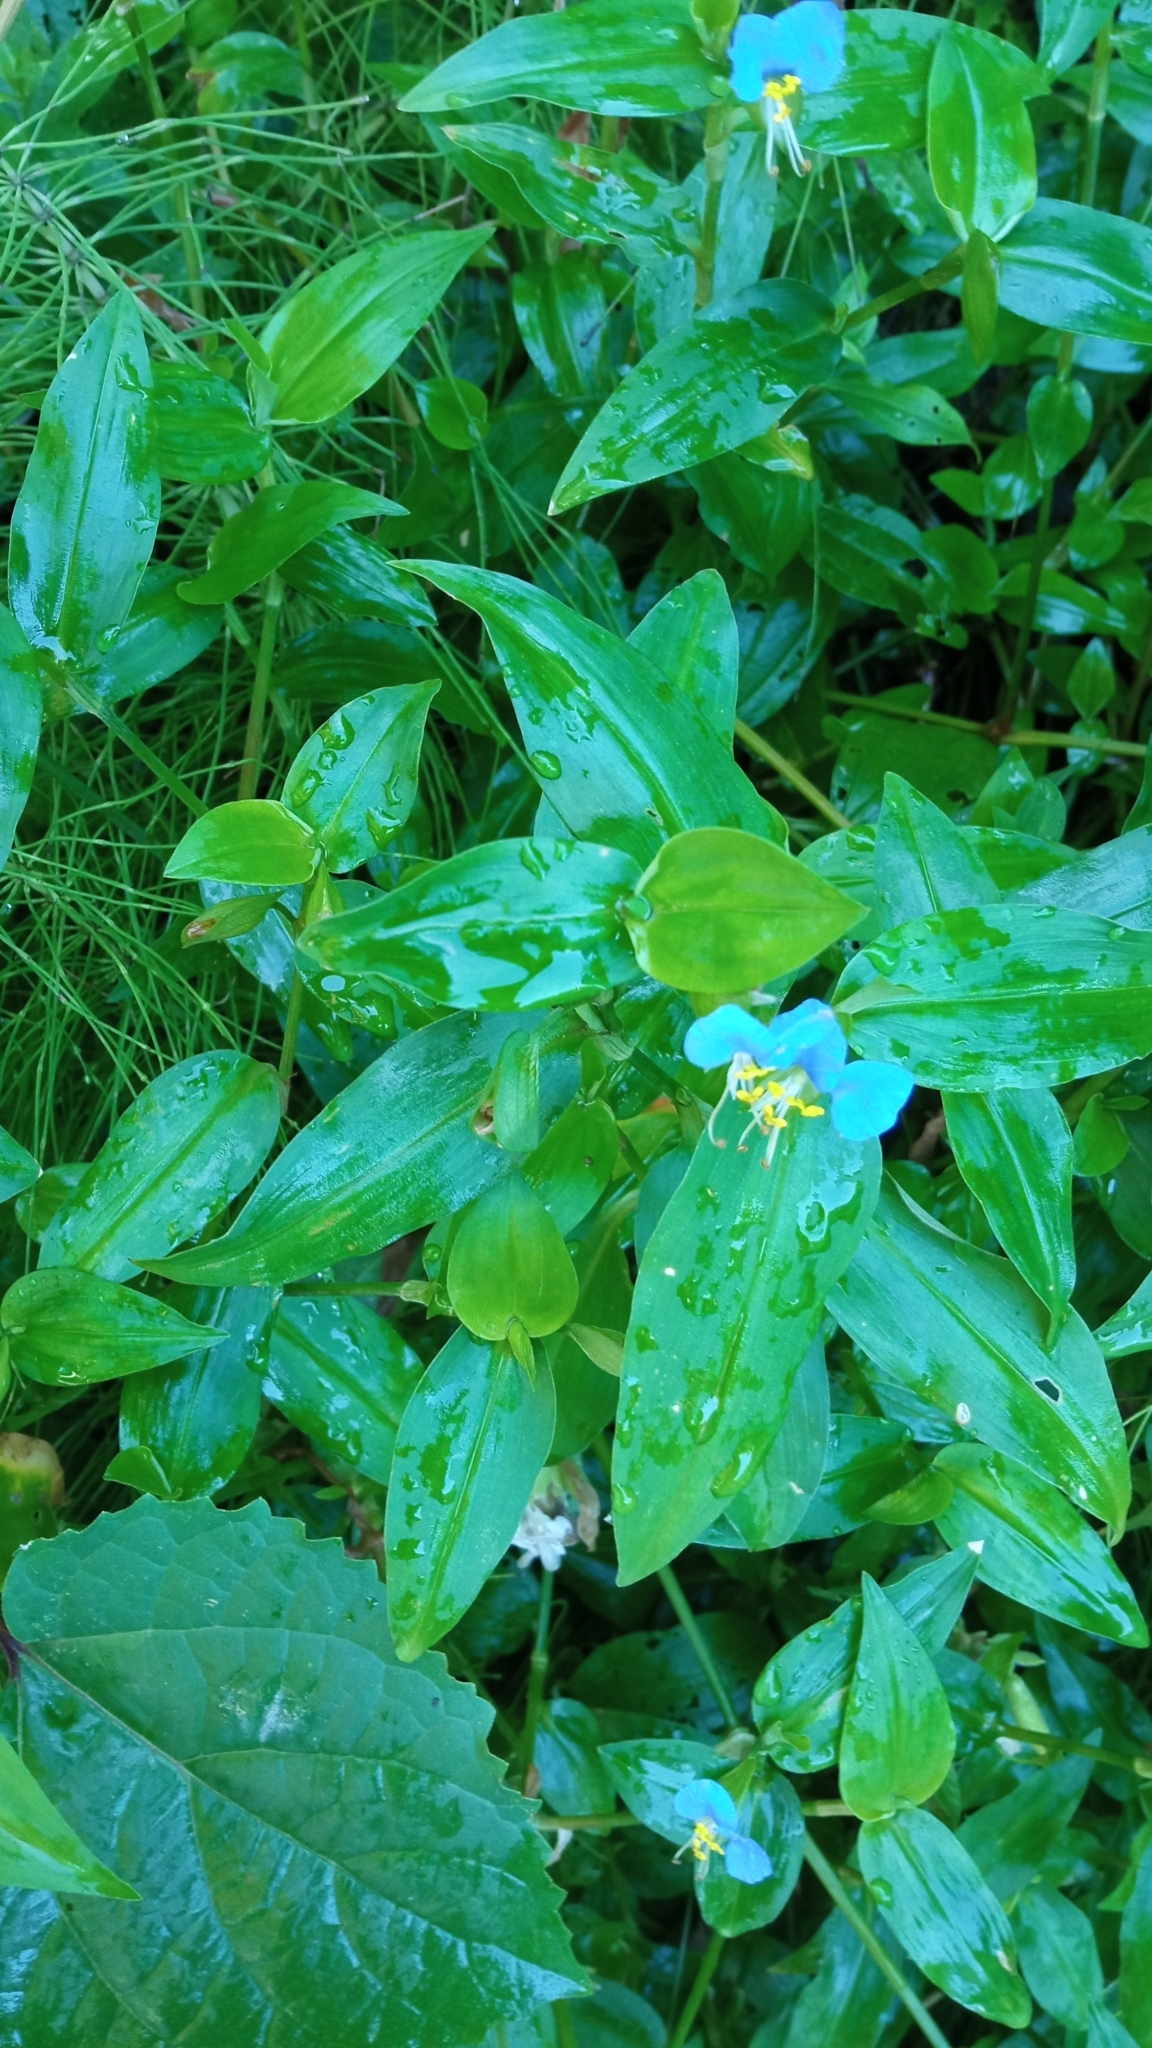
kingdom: Plantae
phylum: Tracheophyta
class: Liliopsida
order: Commelinales
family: Commelinaceae
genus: Commelina
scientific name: Commelina communis
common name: Asiatic dayflower
